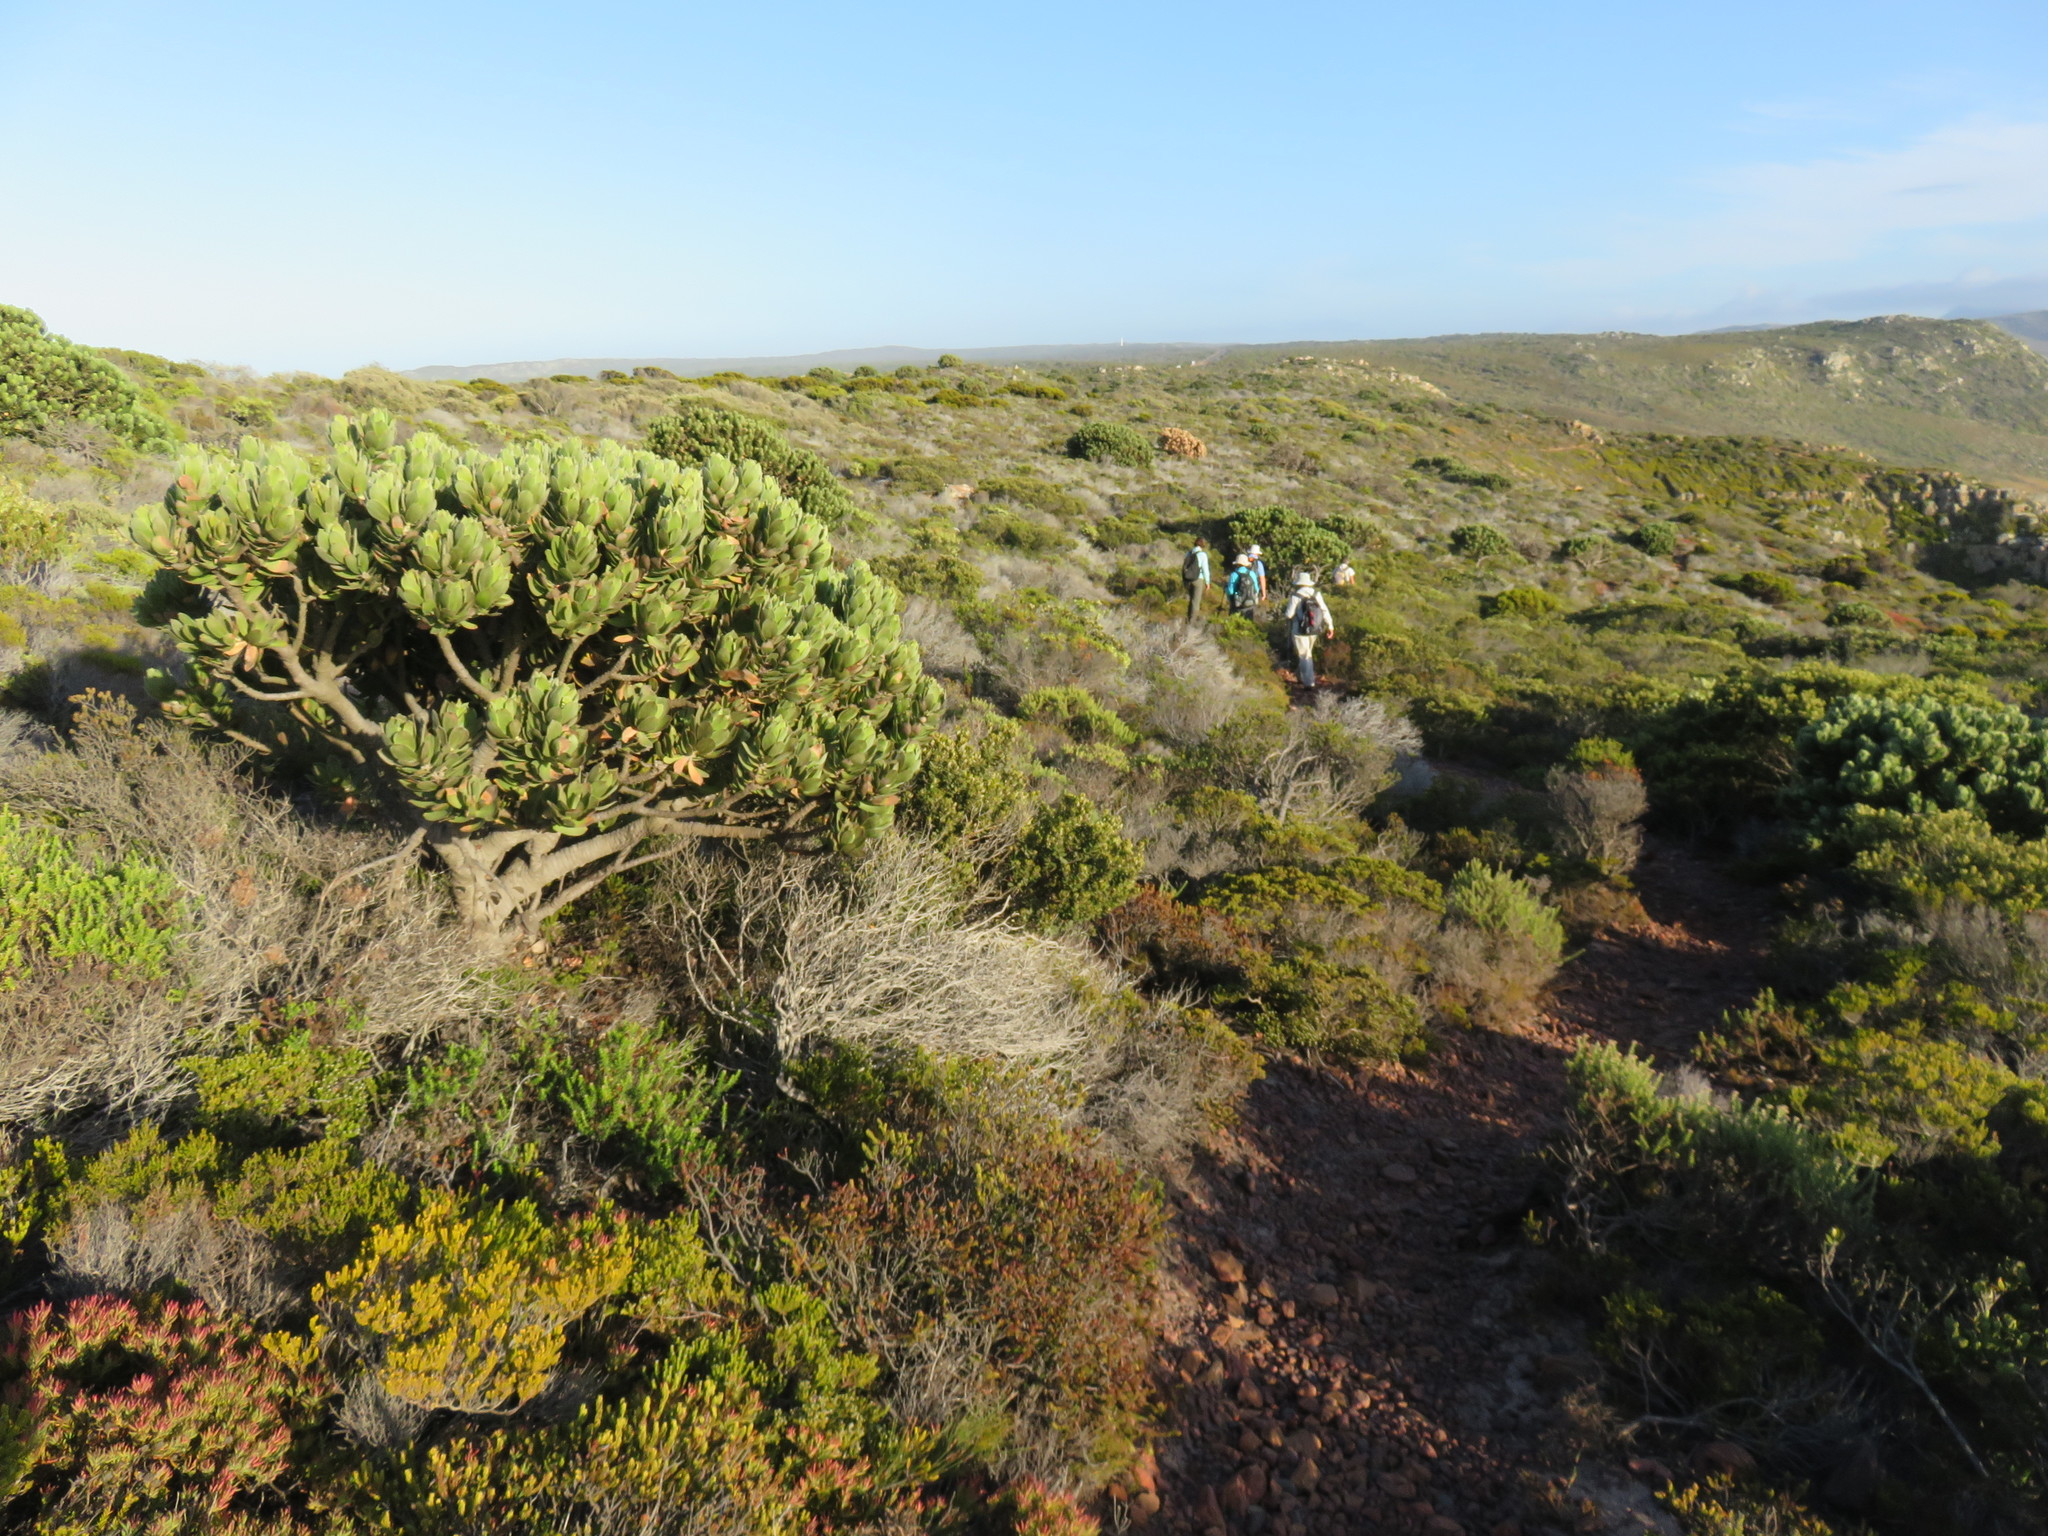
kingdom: Plantae
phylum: Tracheophyta
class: Magnoliopsida
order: Proteales
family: Proteaceae
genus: Leucospermum
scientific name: Leucospermum conocarpodendron
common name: Tree pincushion
